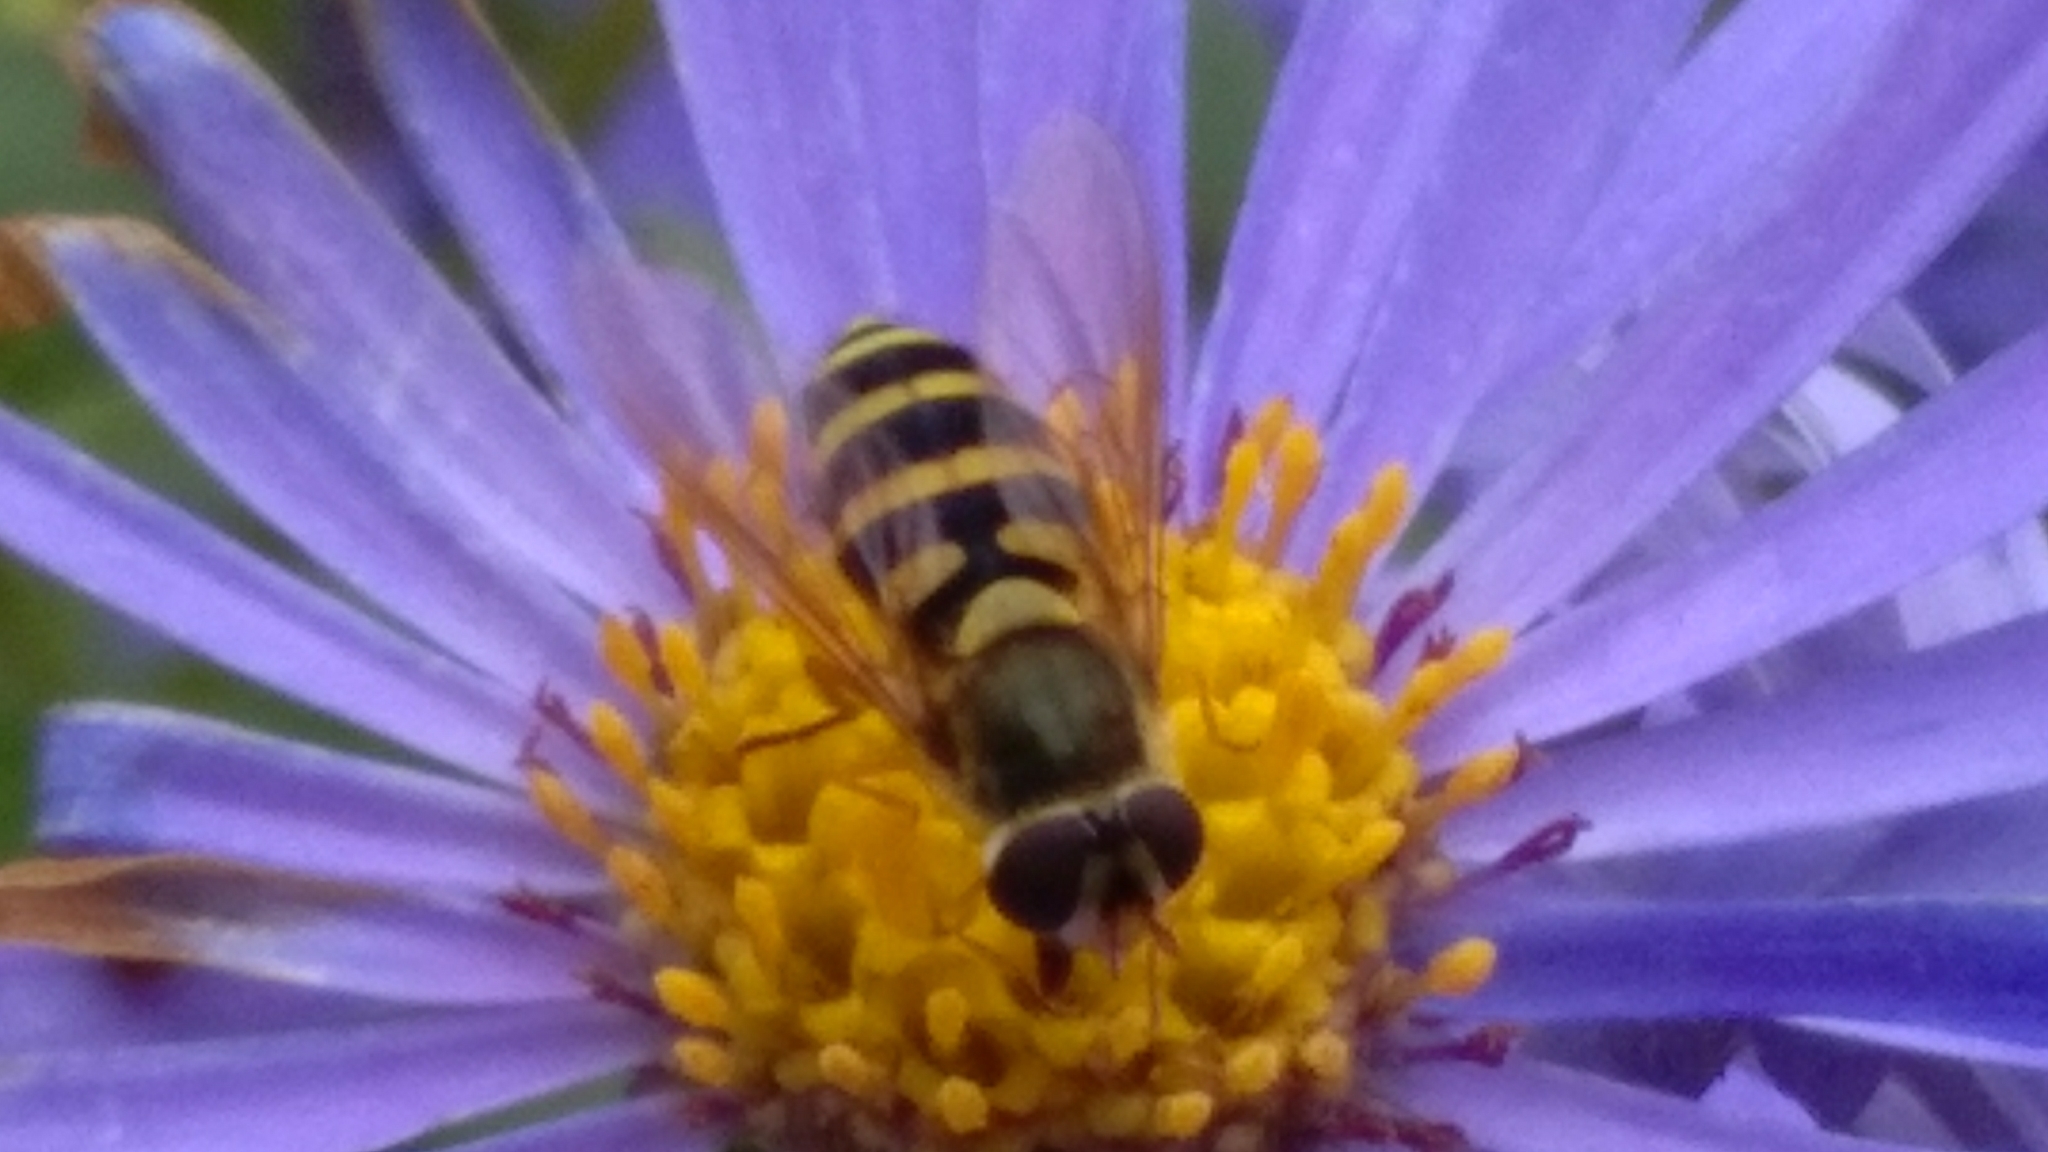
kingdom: Animalia
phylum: Arthropoda
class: Insecta
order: Diptera
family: Syrphidae
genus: Syrphus
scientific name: Syrphus ribesii
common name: Common flower fly
